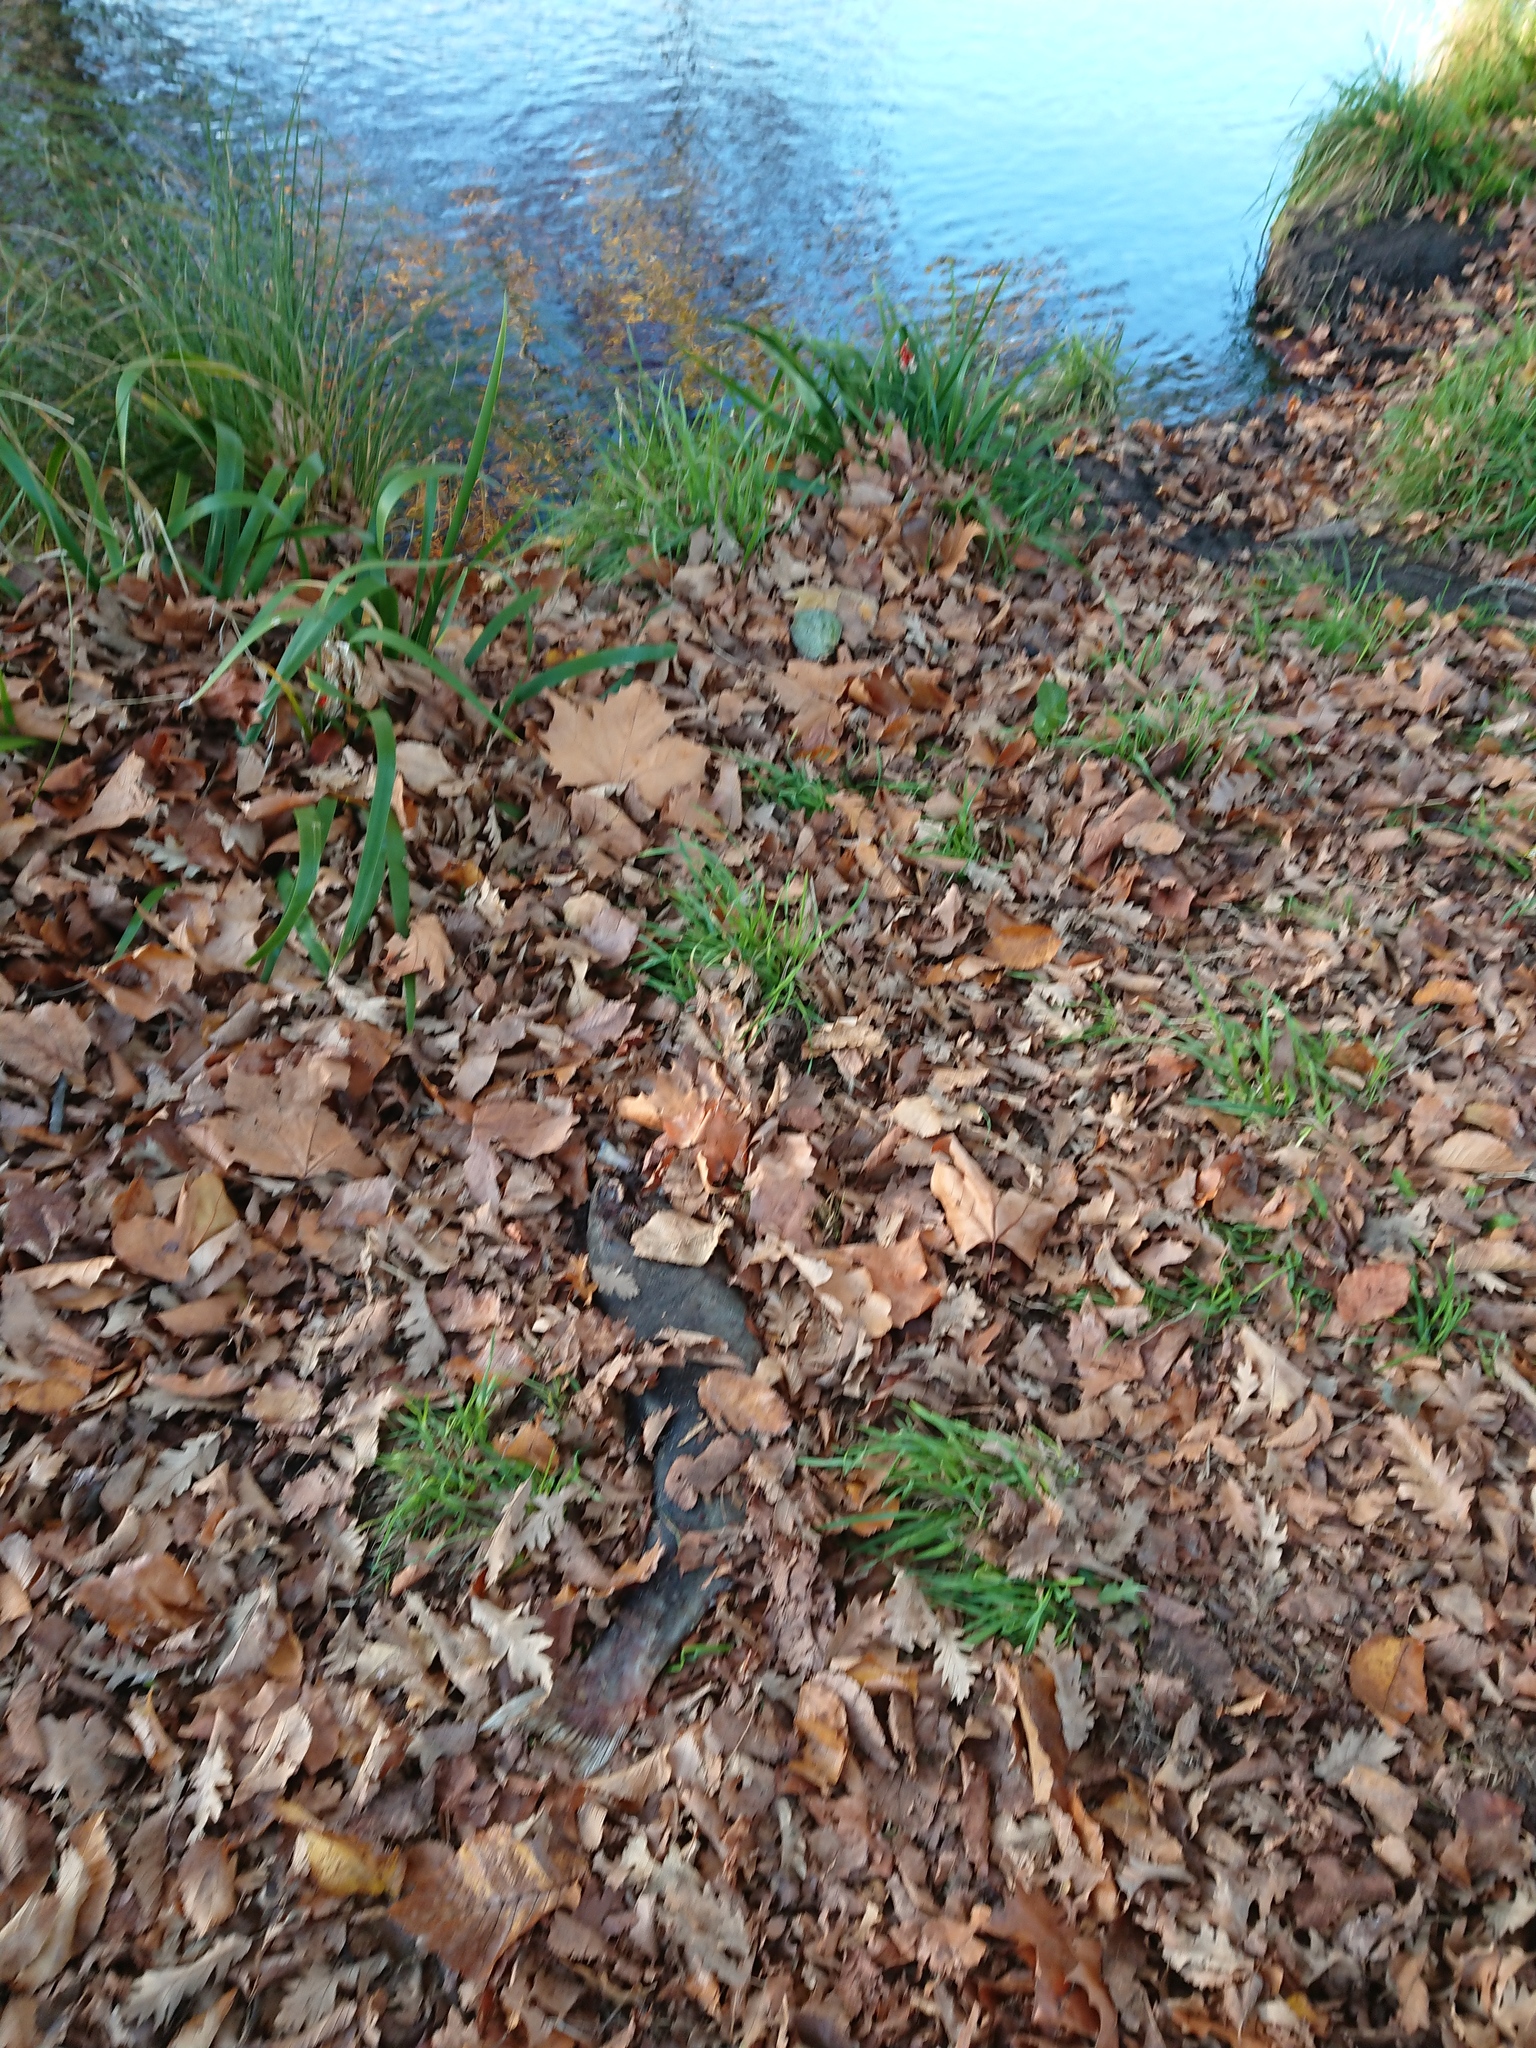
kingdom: Animalia
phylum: Chordata
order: Salmoniformes
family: Salmonidae
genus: Salmo
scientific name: Salmo trutta
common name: Brown trout
